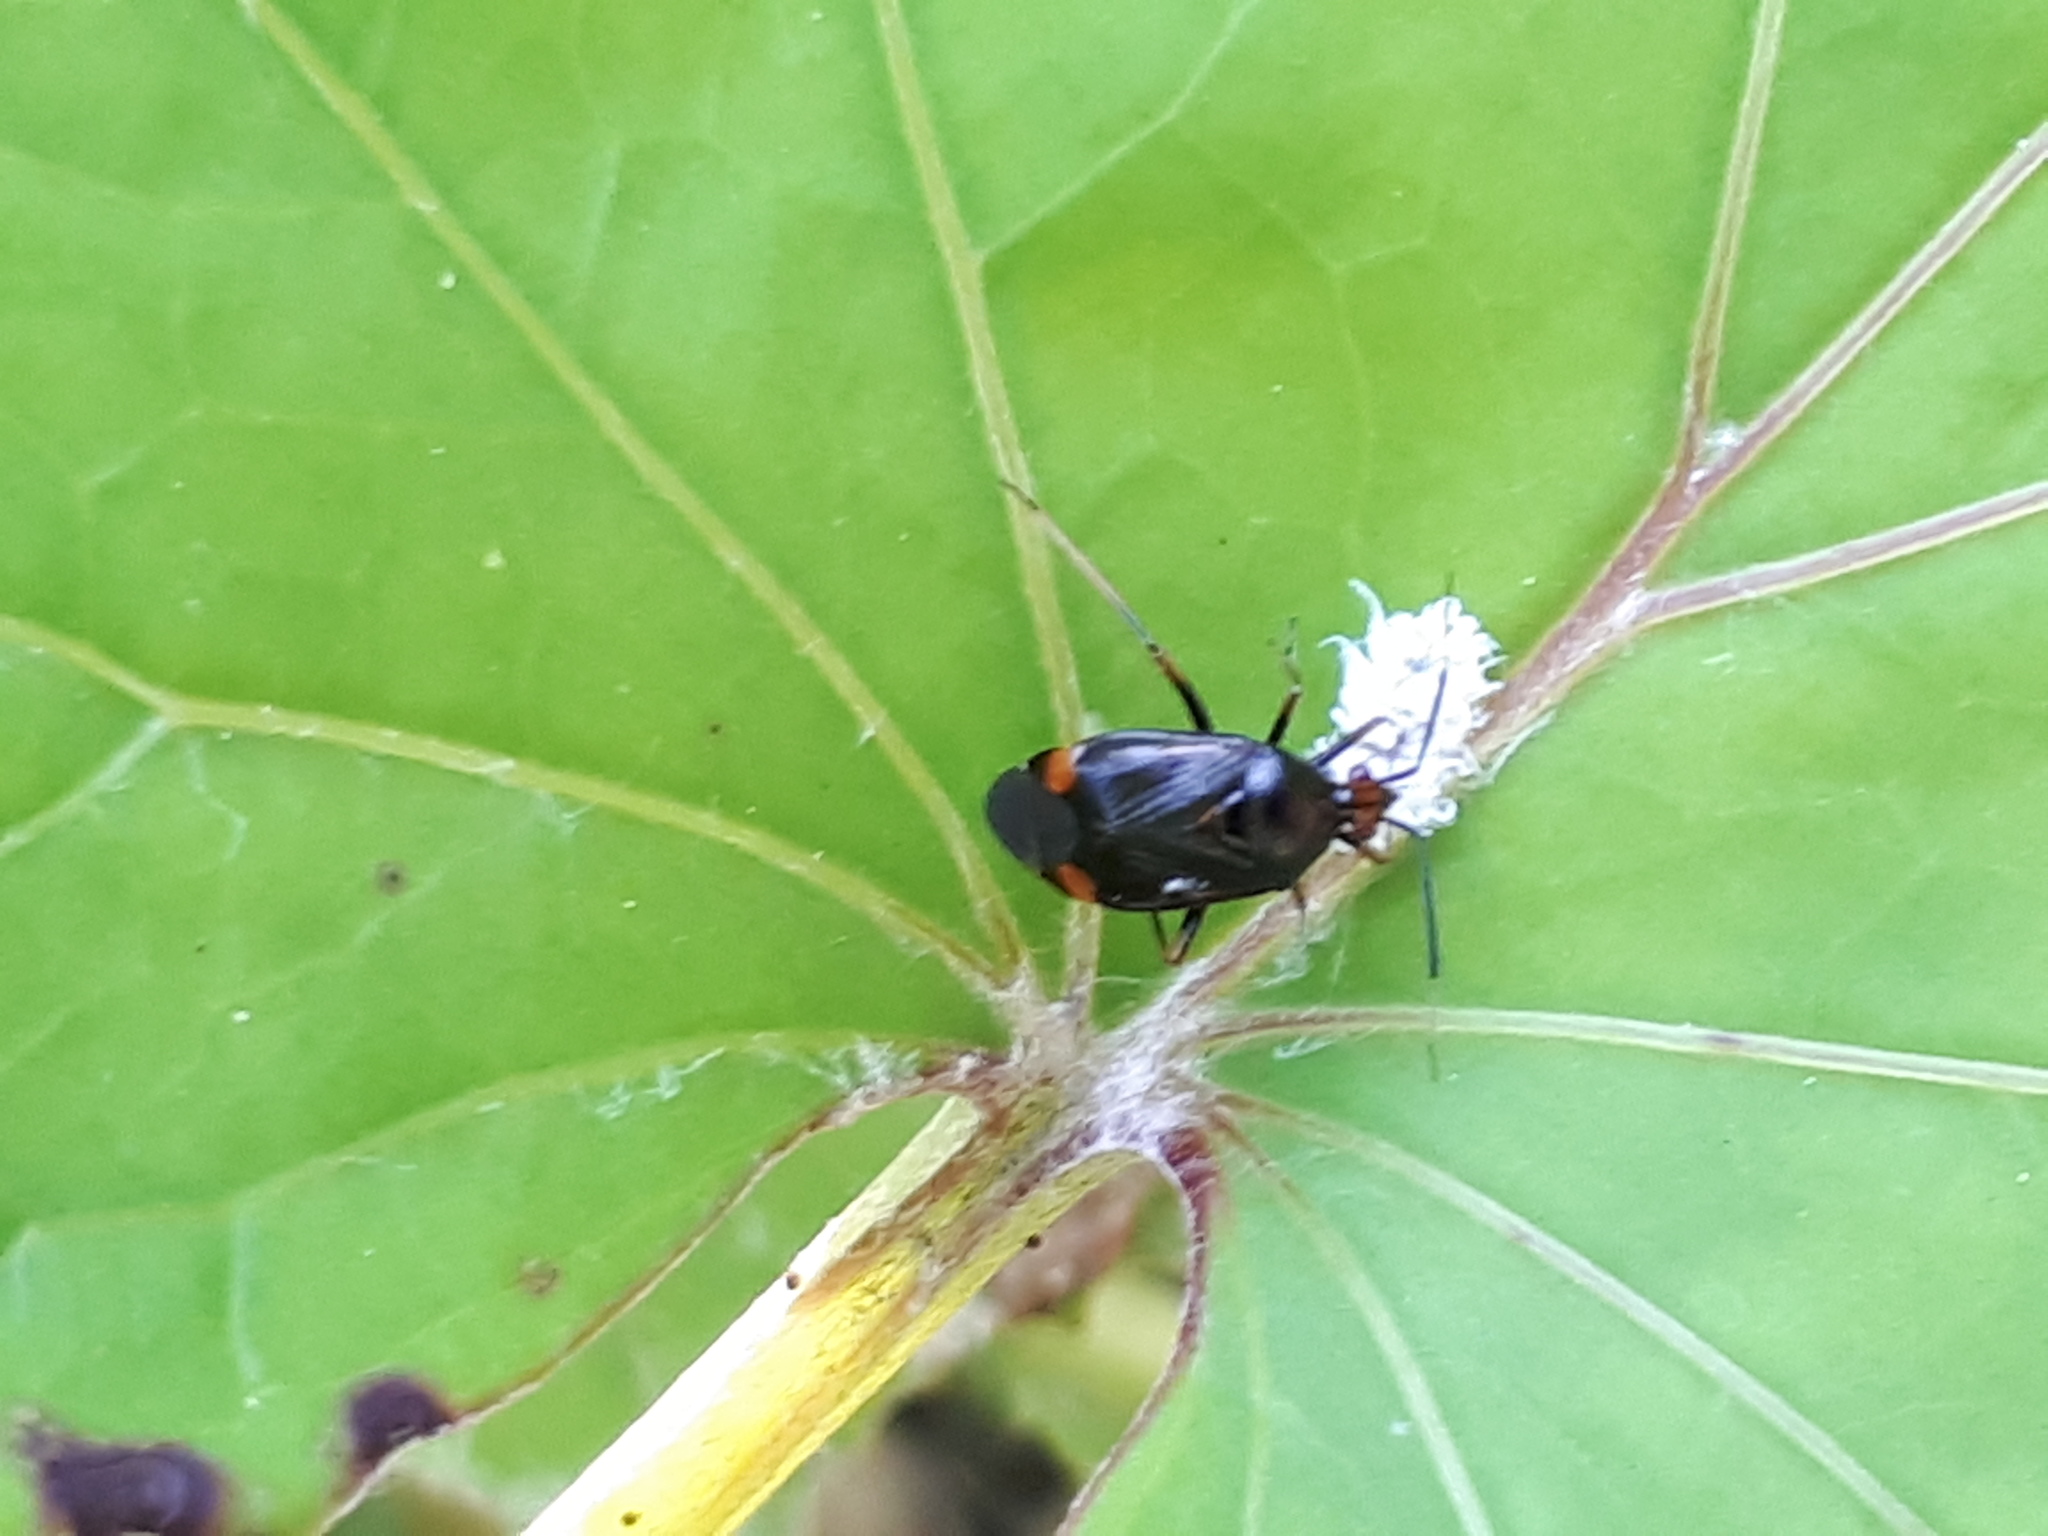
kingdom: Animalia
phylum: Arthropoda
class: Insecta
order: Hemiptera
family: Miridae
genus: Deraeocoris
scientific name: Deraeocoris ruber
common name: Plant bug
